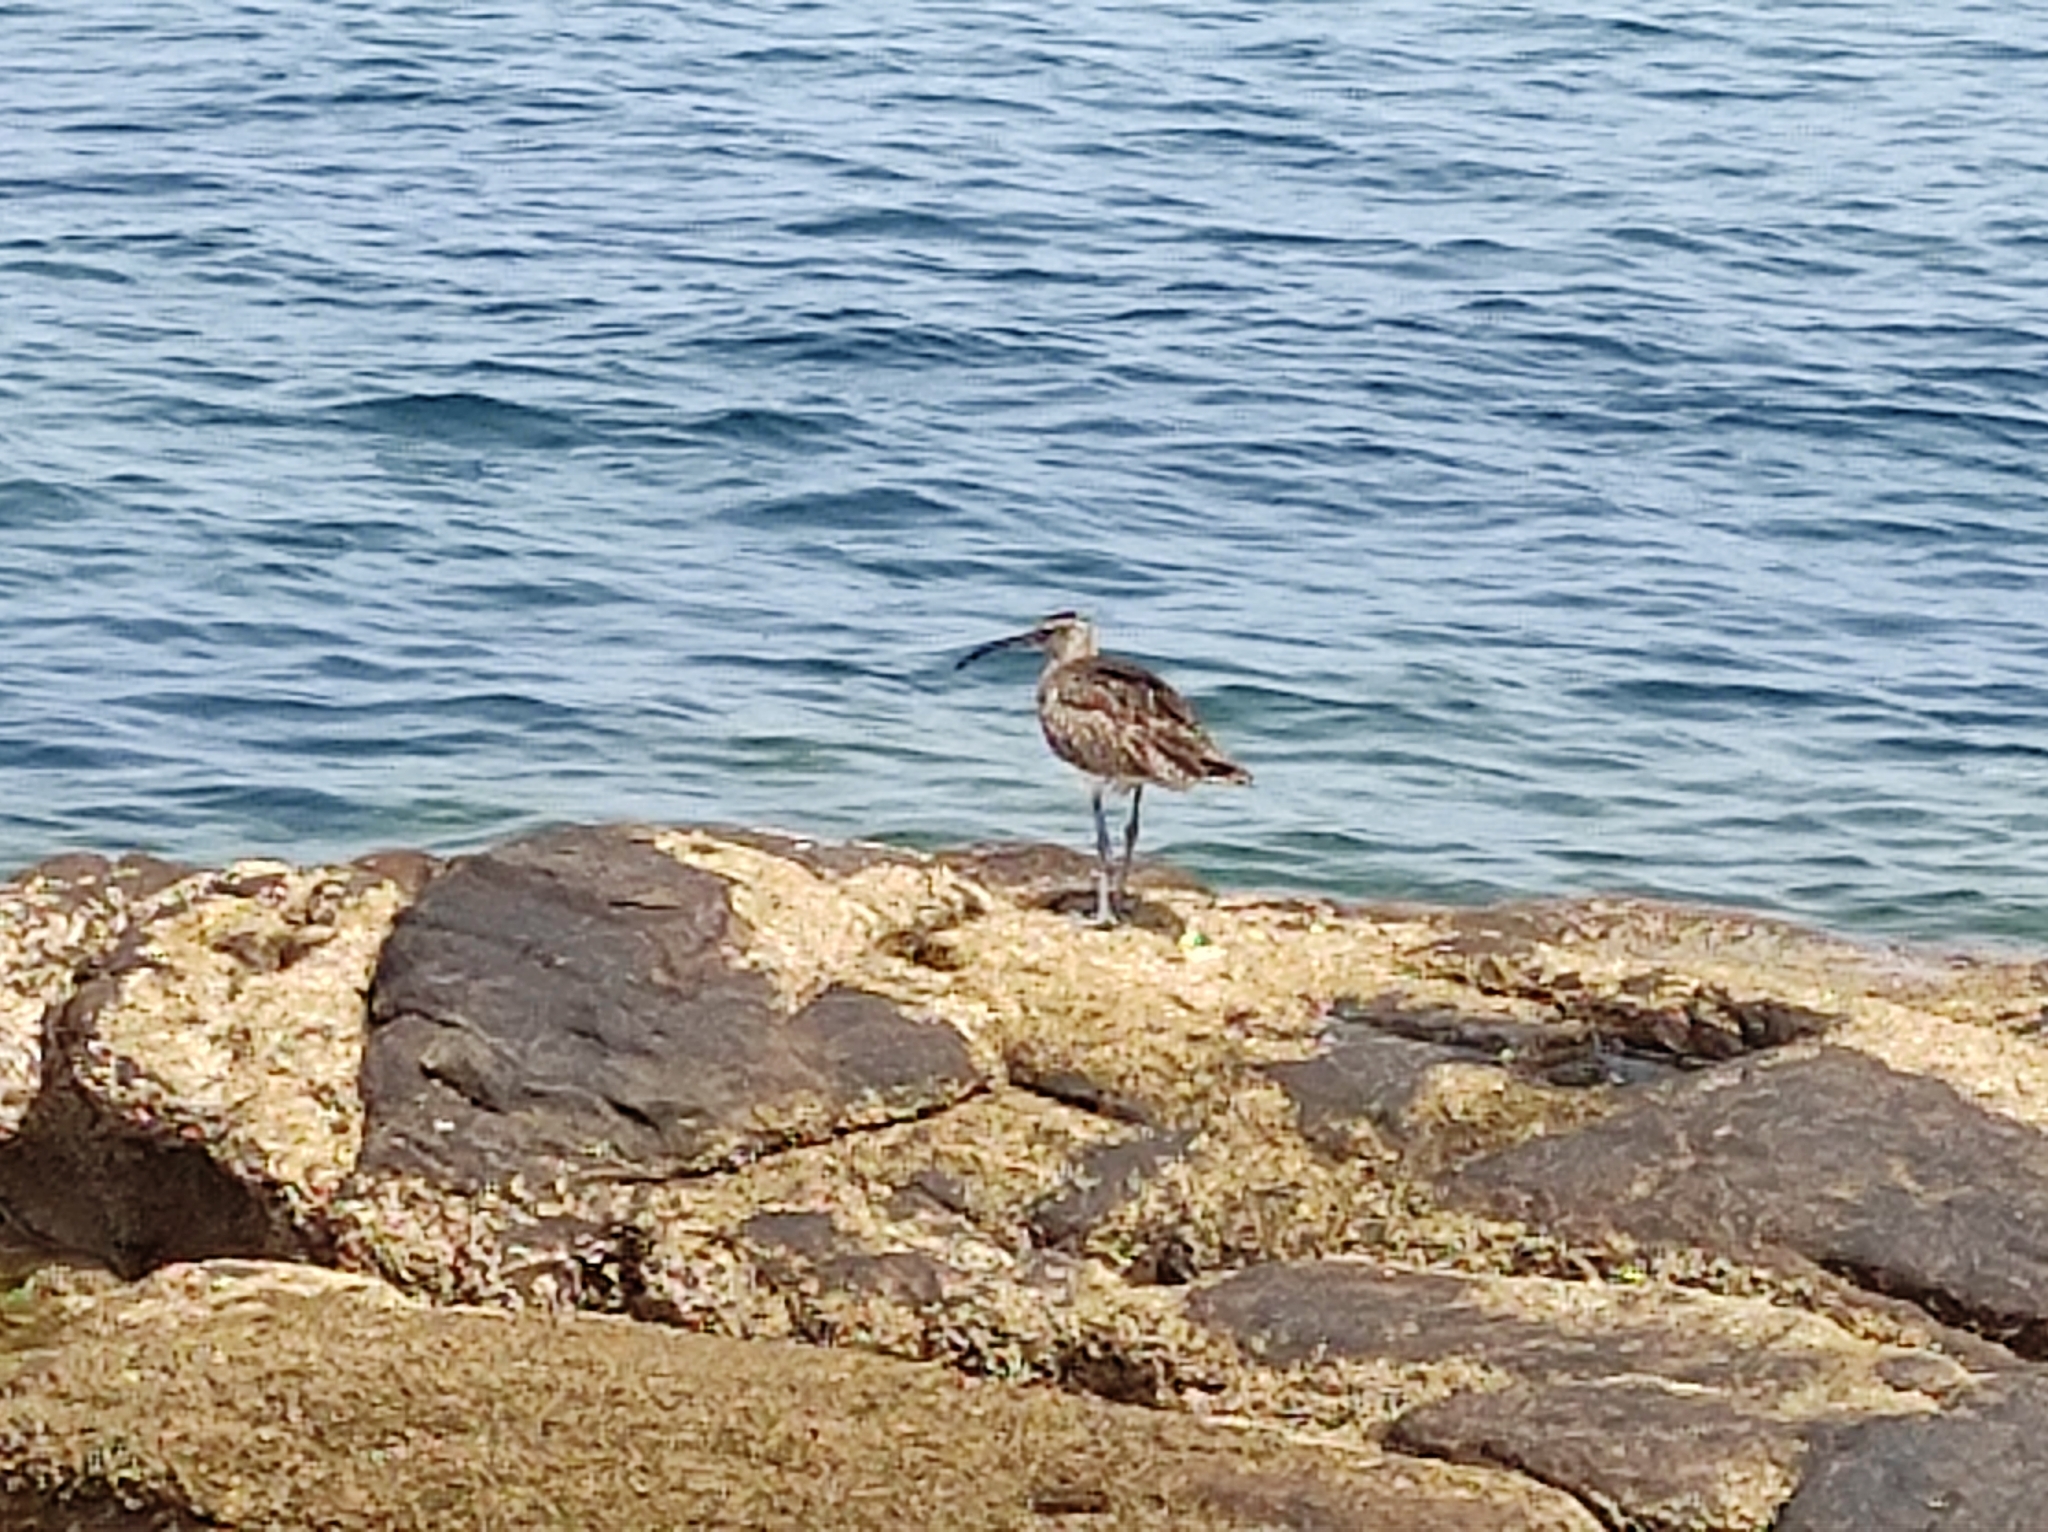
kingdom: Animalia
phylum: Chordata
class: Aves
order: Charadriiformes
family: Scolopacidae
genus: Numenius
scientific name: Numenius phaeopus
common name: Whimbrel
